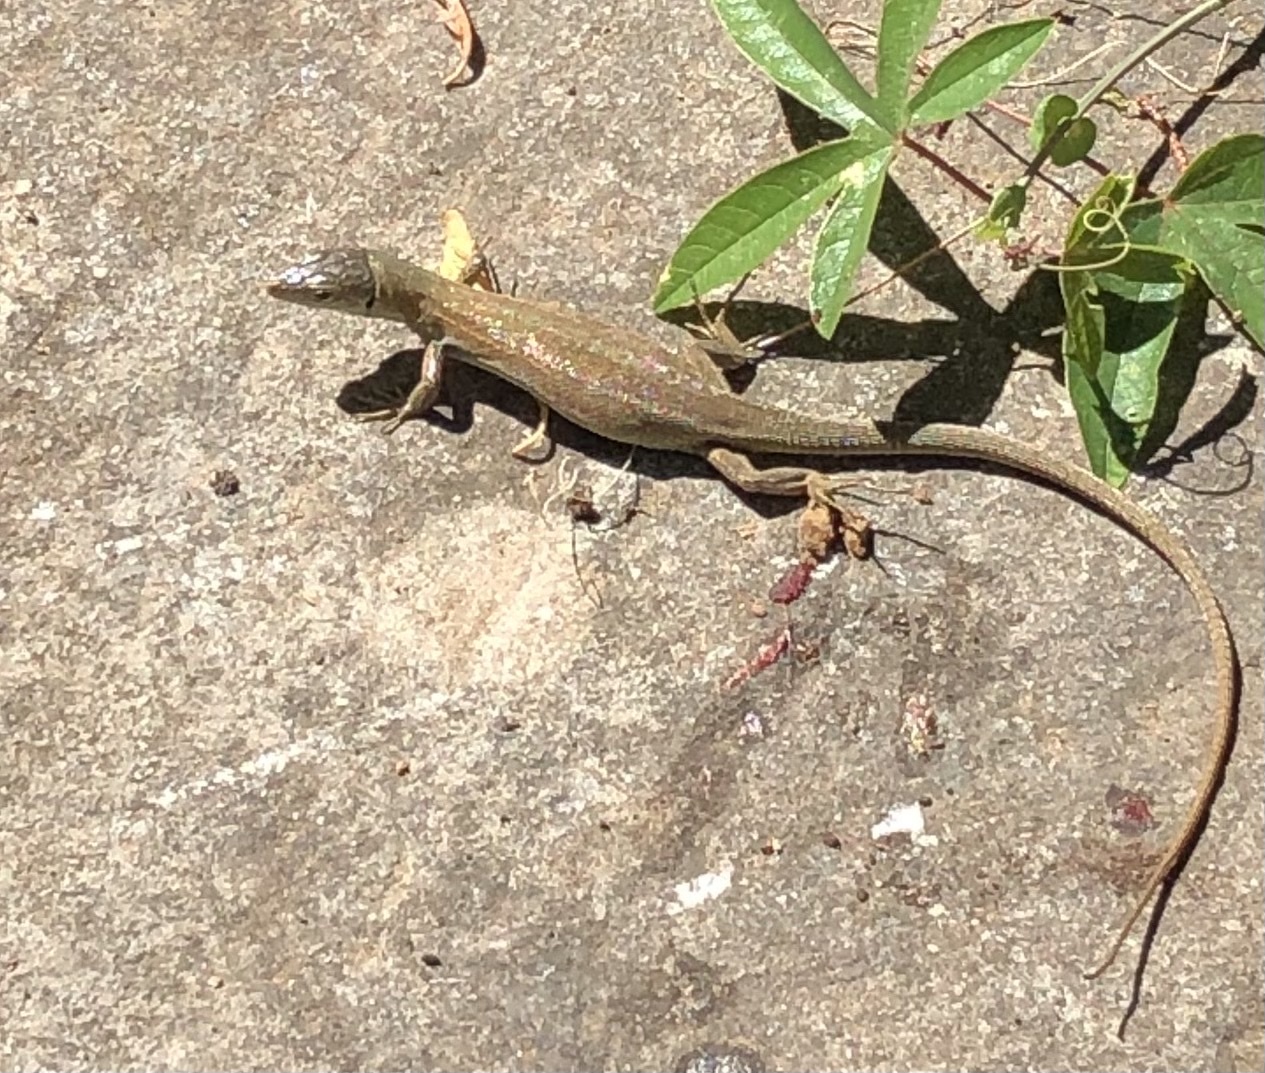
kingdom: Animalia
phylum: Chordata
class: Squamata
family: Lacertidae
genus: Podarcis
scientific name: Podarcis melisellensis
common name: Dalmatian wall lizard
